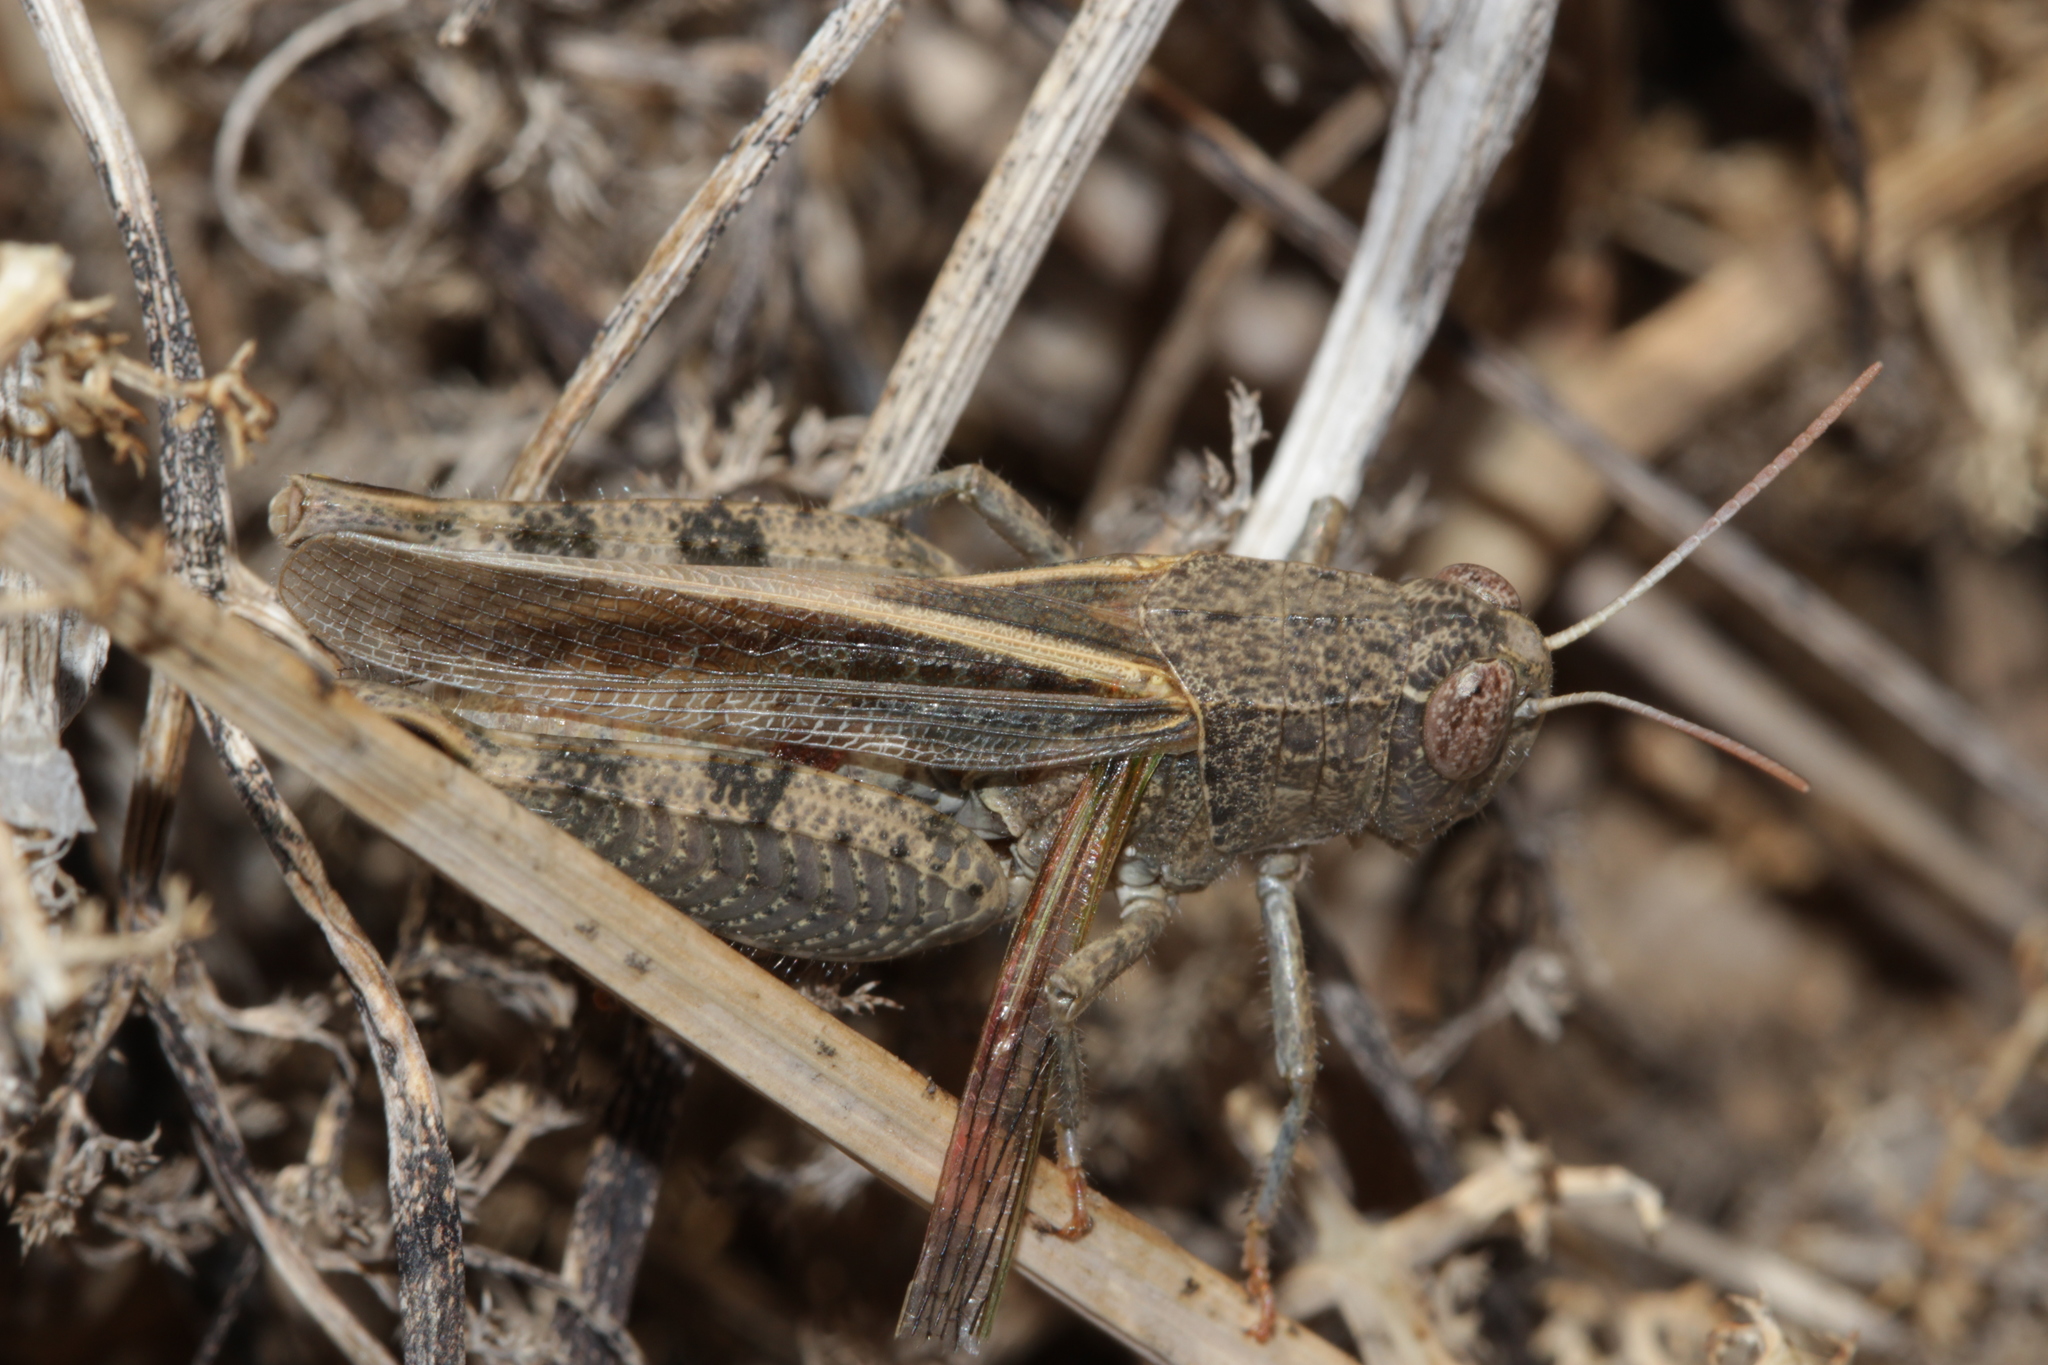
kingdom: Animalia
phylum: Arthropoda
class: Insecta
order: Orthoptera
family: Acrididae
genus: Calliptamus
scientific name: Calliptamus barbarus
